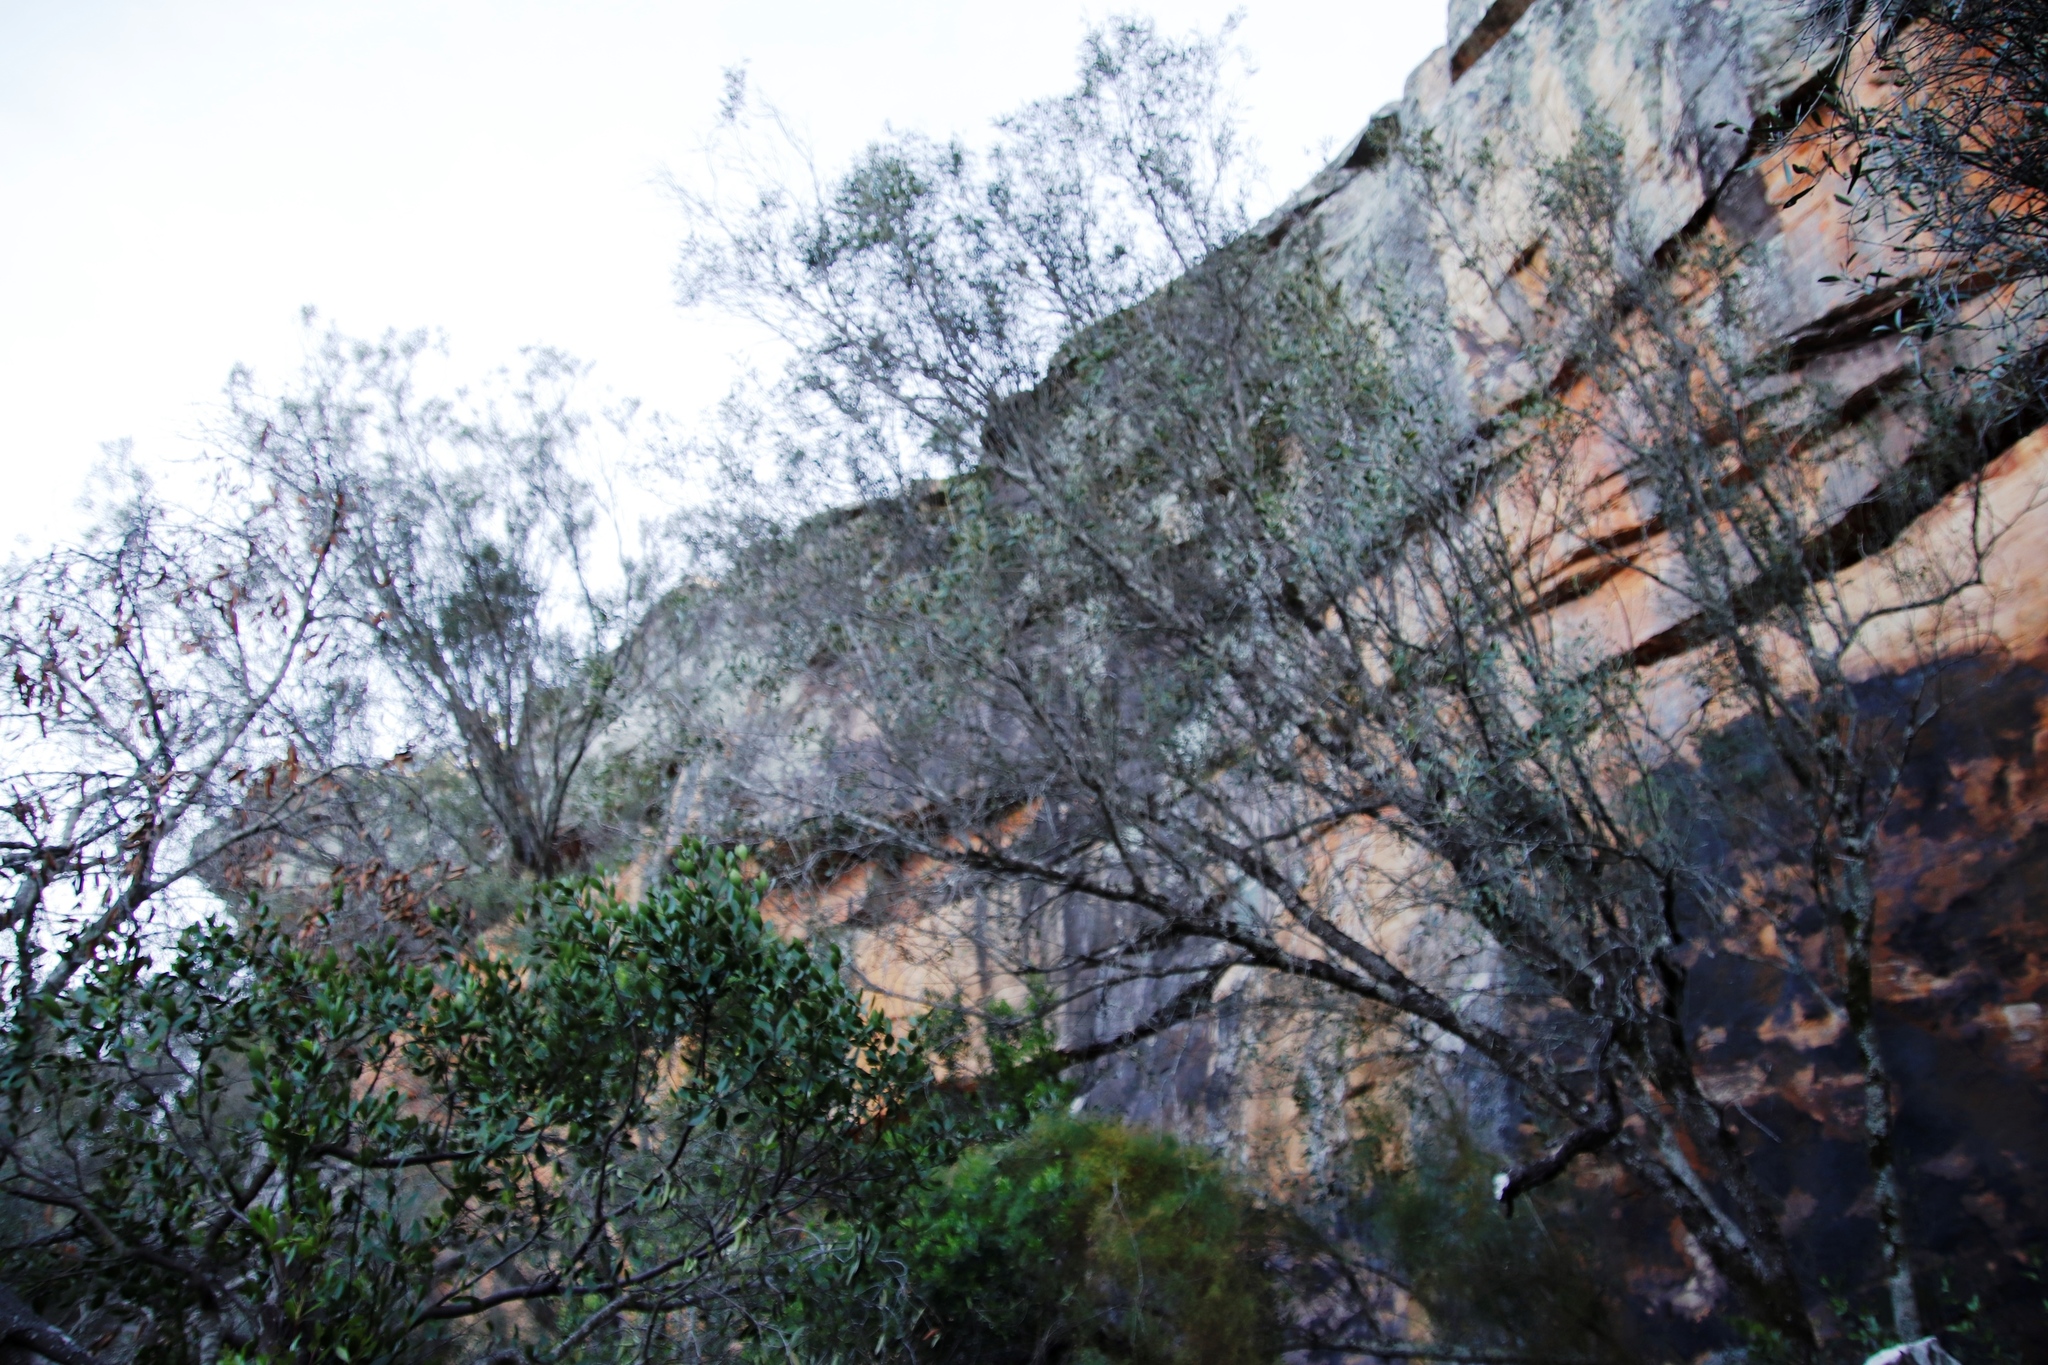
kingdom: Plantae
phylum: Tracheophyta
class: Magnoliopsida
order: Lamiales
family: Oleaceae
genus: Olea
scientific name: Olea europaea
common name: Olive
